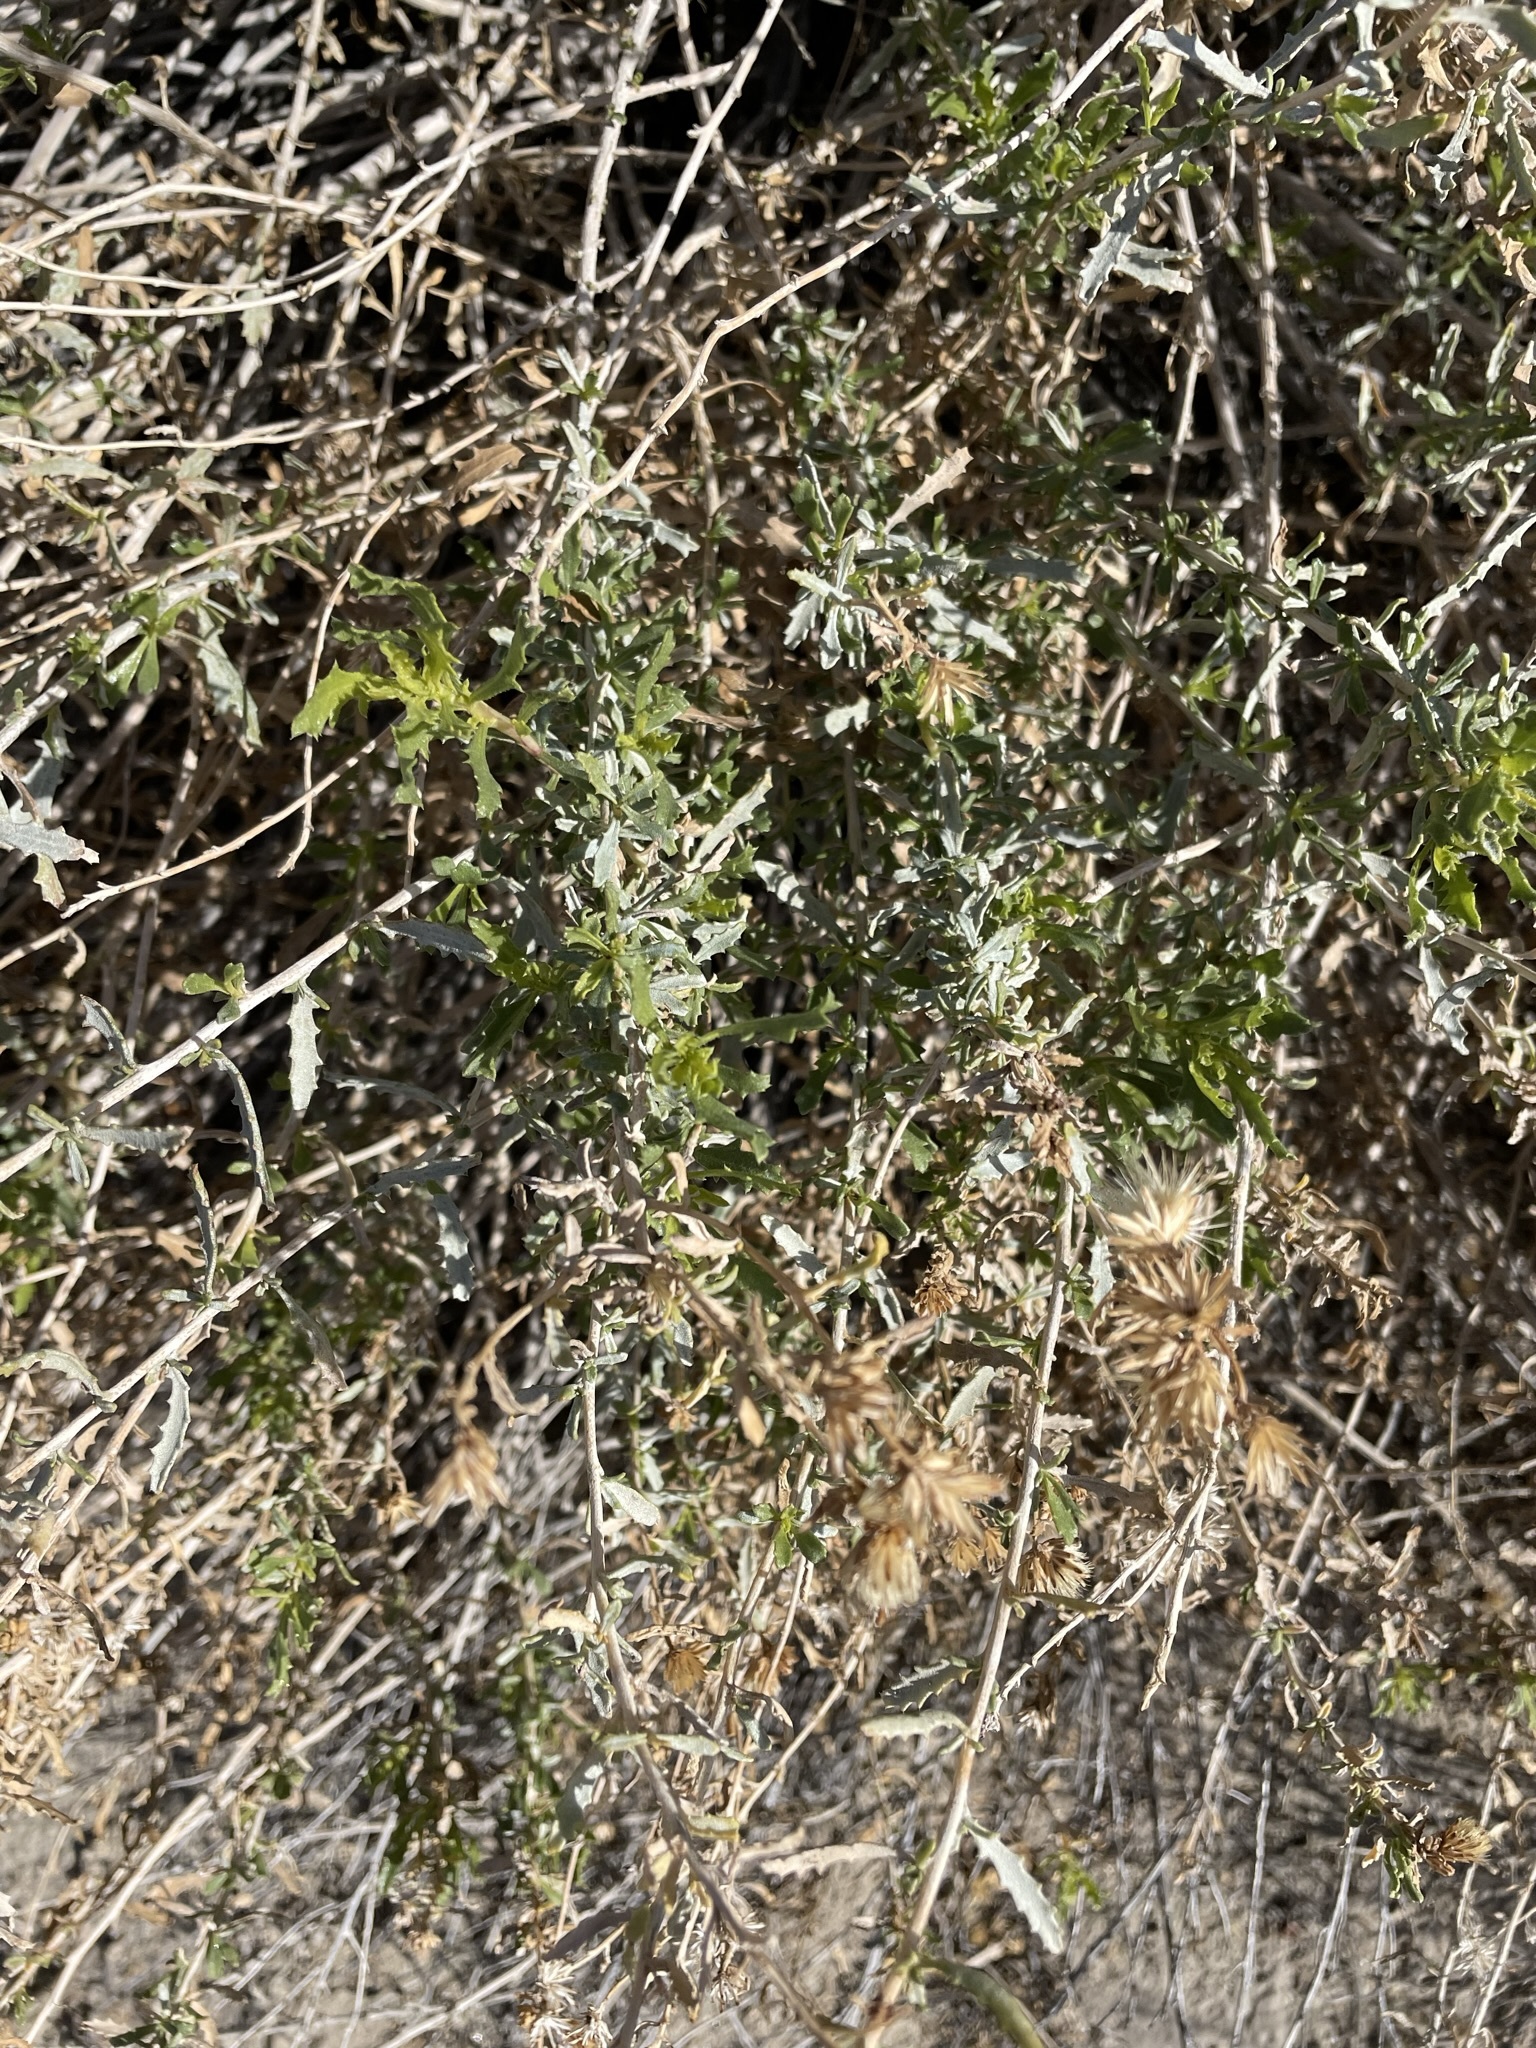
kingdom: Plantae
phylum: Tracheophyta
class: Magnoliopsida
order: Asterales
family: Asteraceae
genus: Isocoma
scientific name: Isocoma acradenia
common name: Alkali jimmyweed
